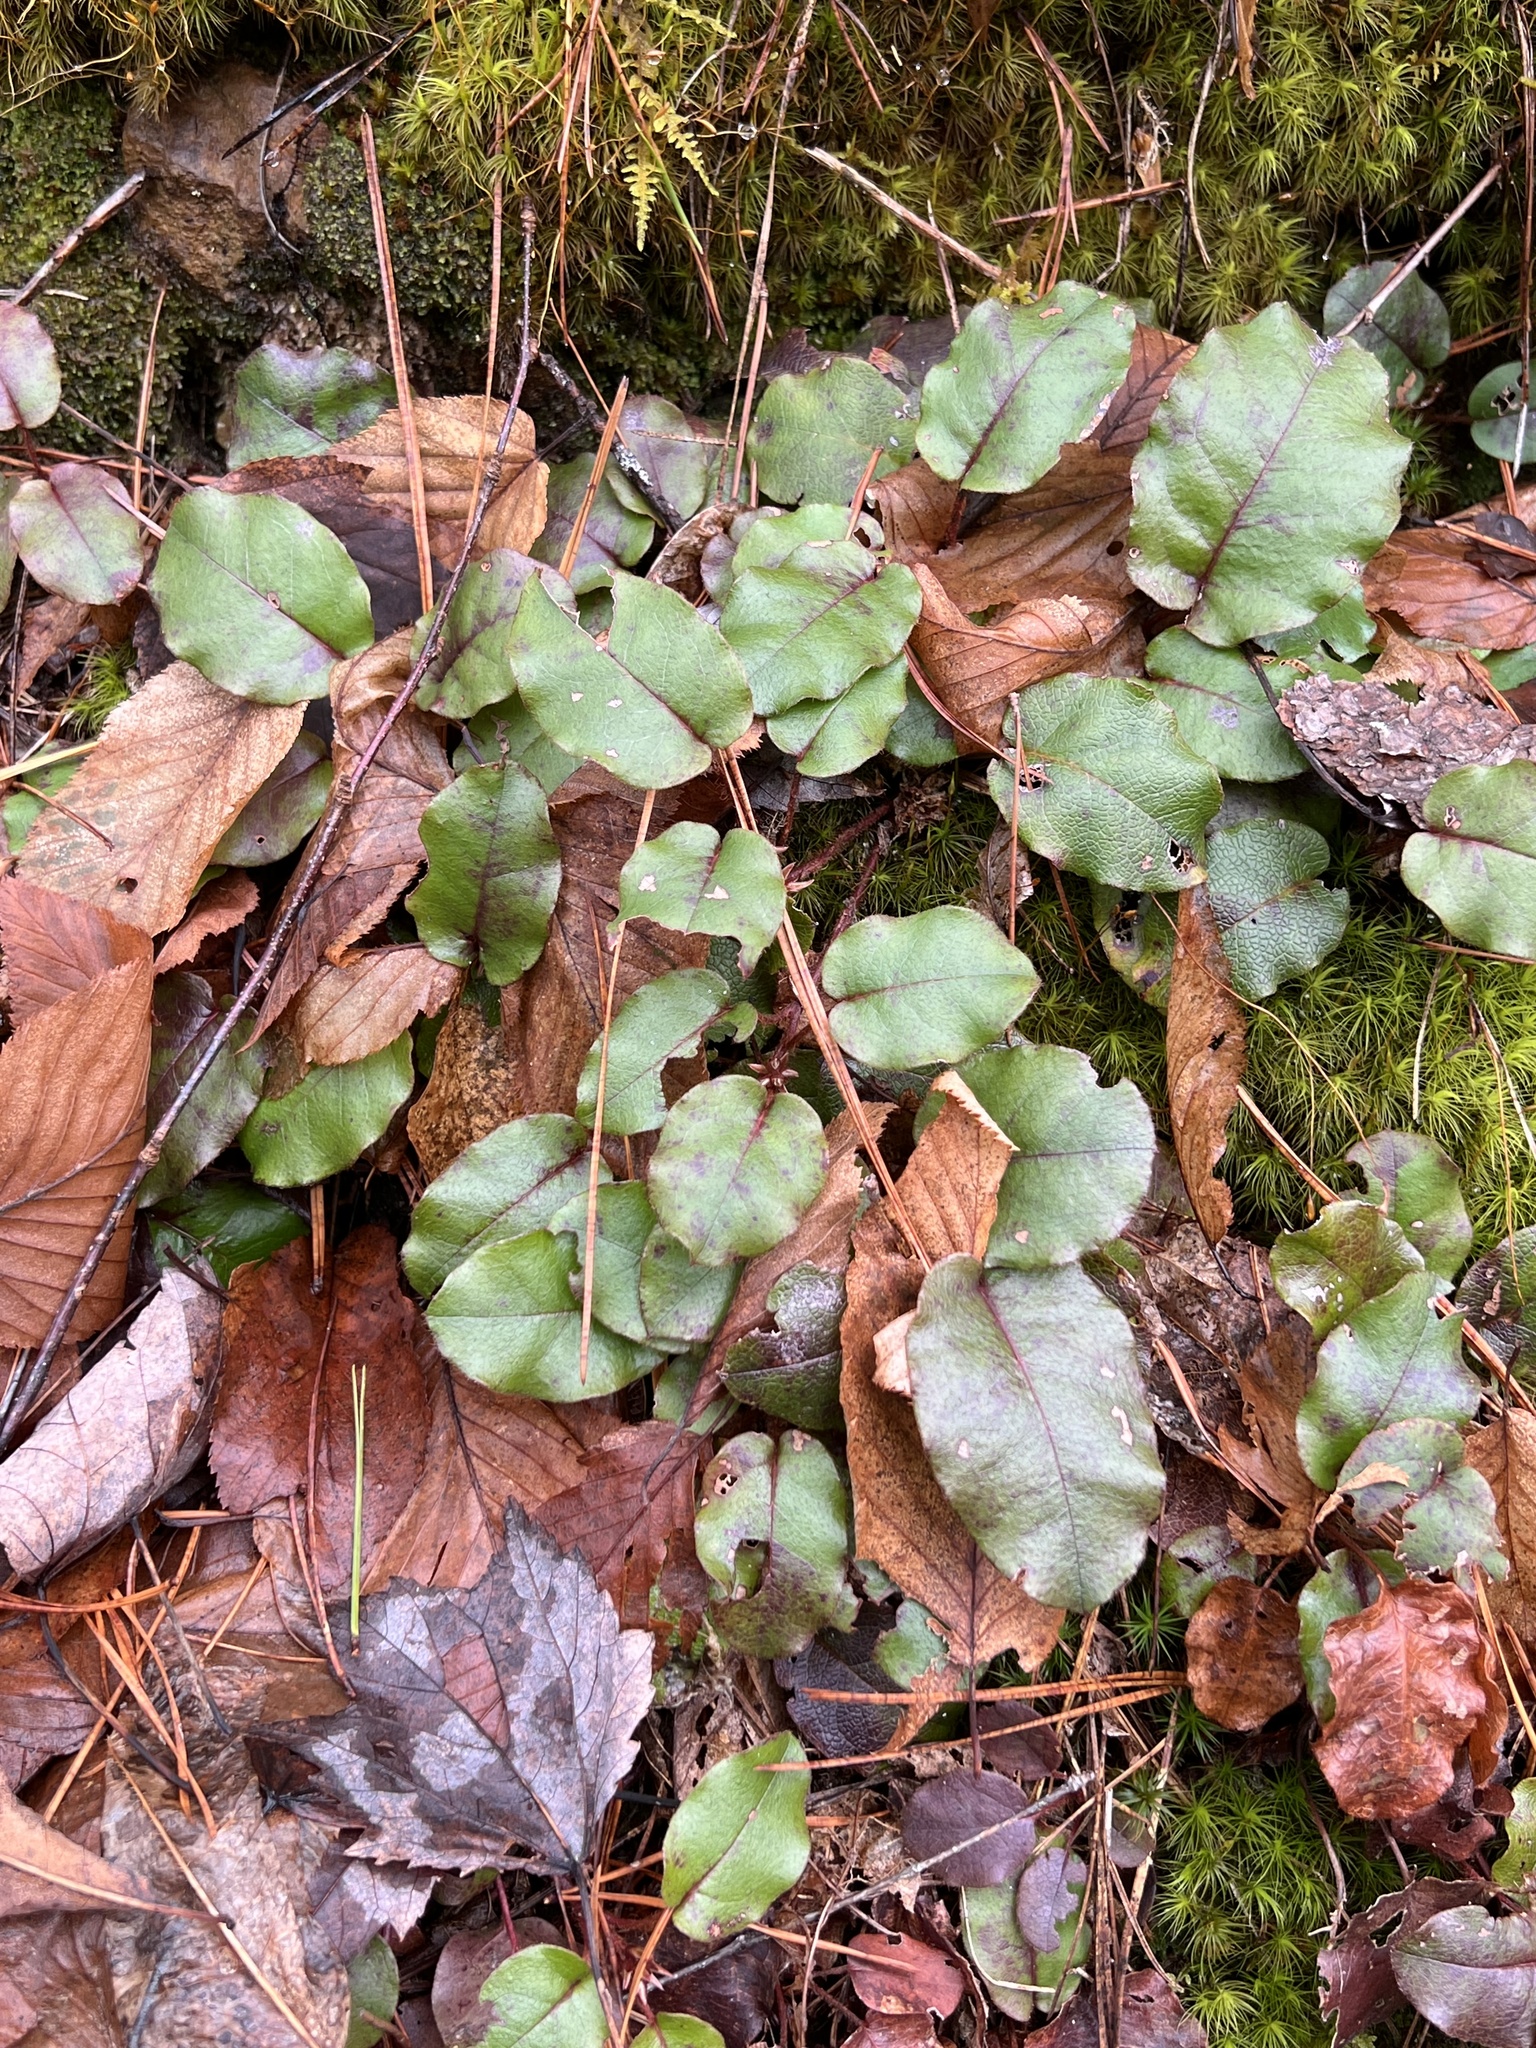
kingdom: Plantae
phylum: Tracheophyta
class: Magnoliopsida
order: Ericales
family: Ericaceae
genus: Epigaea
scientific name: Epigaea repens
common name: Gravelroot
